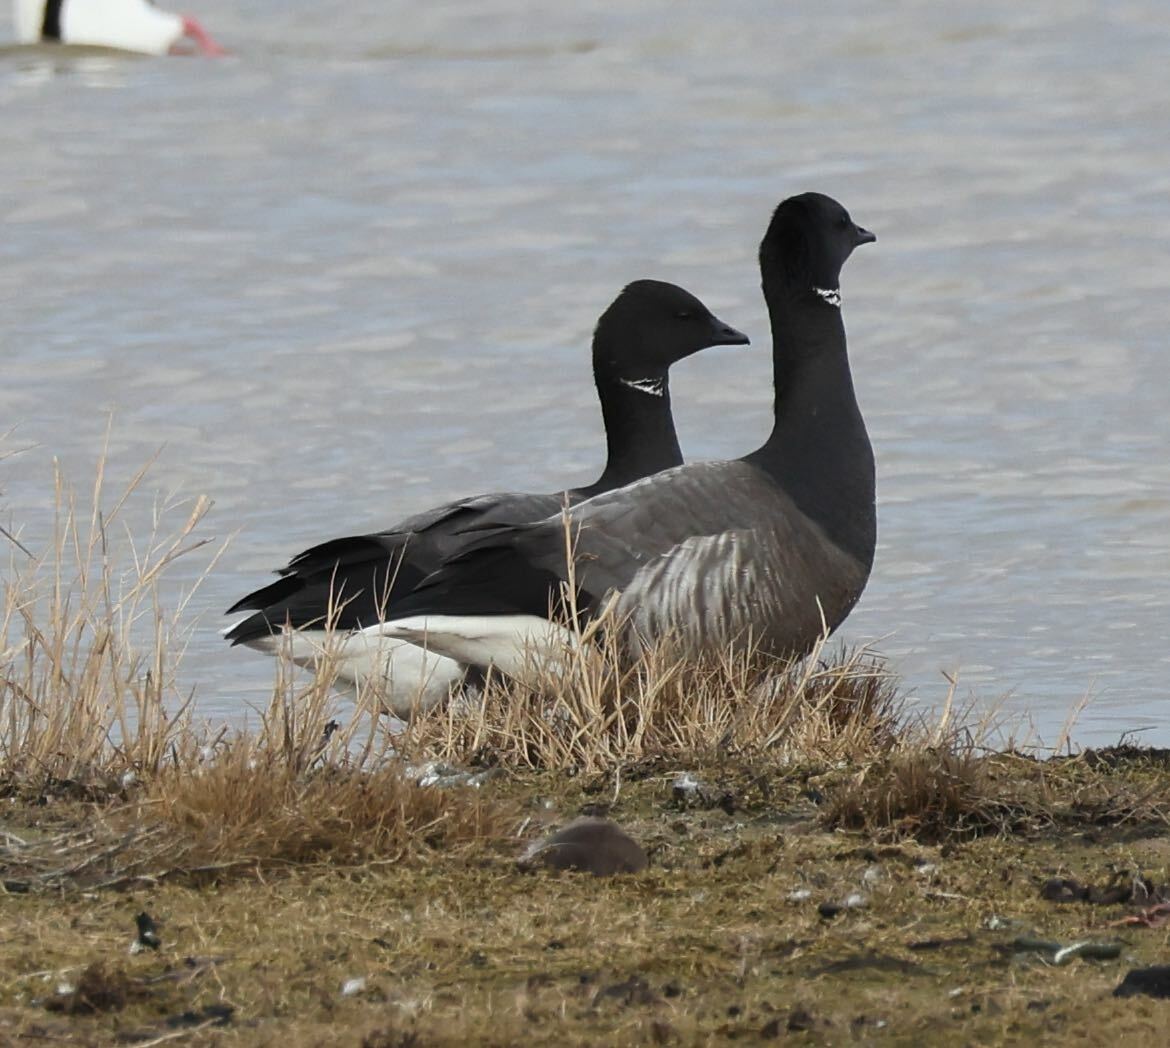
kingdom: Animalia
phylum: Chordata
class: Aves
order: Anseriformes
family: Anatidae
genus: Branta
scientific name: Branta bernicla
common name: Brant goose
